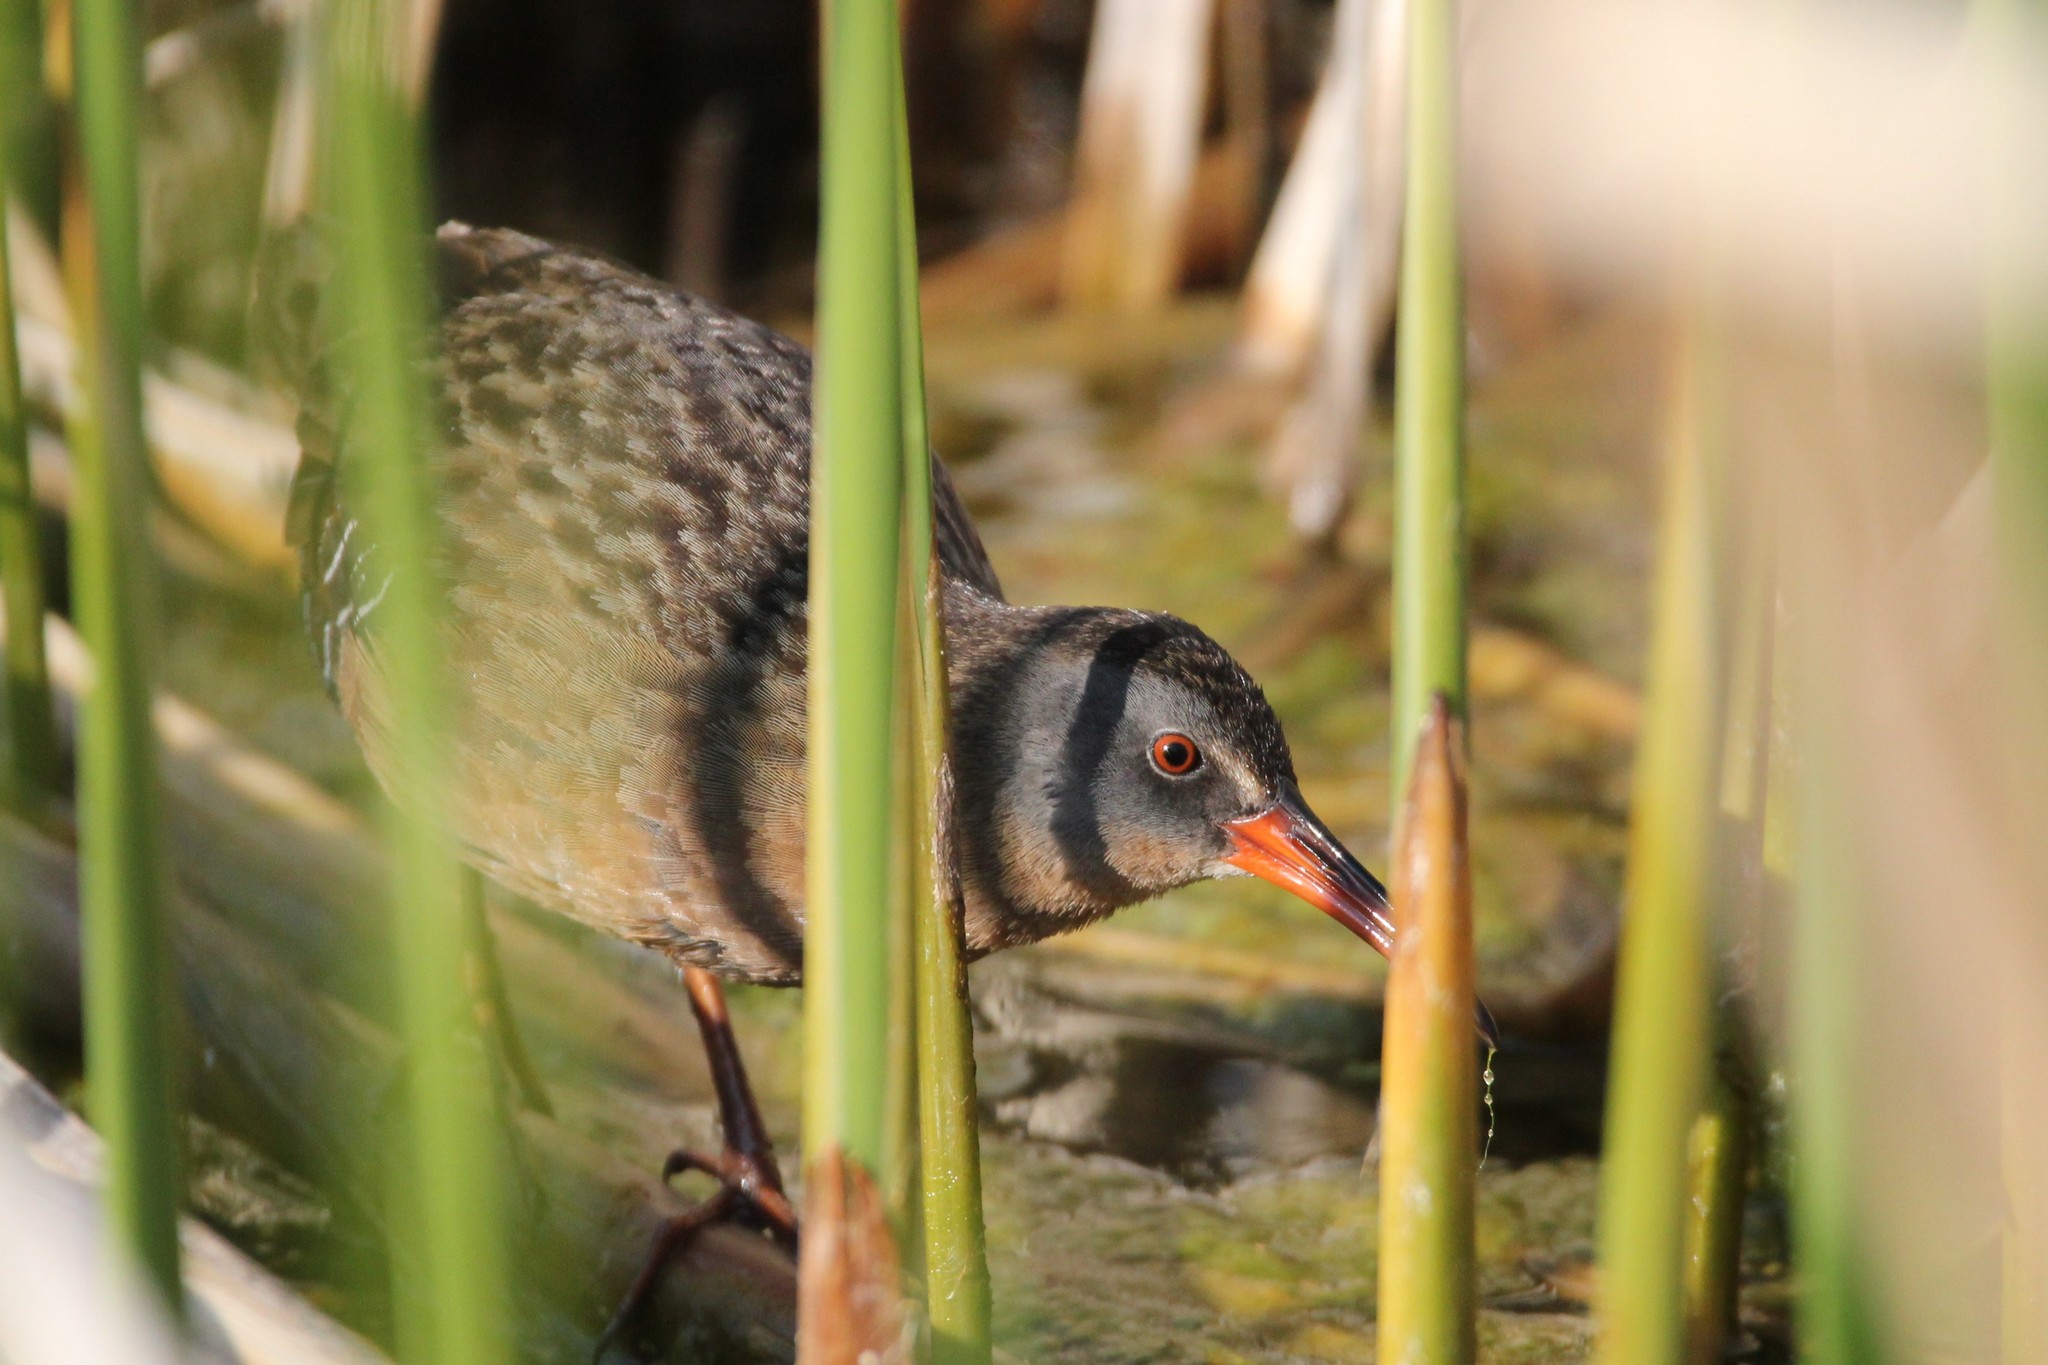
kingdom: Animalia
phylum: Chordata
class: Aves
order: Gruiformes
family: Rallidae
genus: Rallus
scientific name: Rallus limicola
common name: Virginia rail
